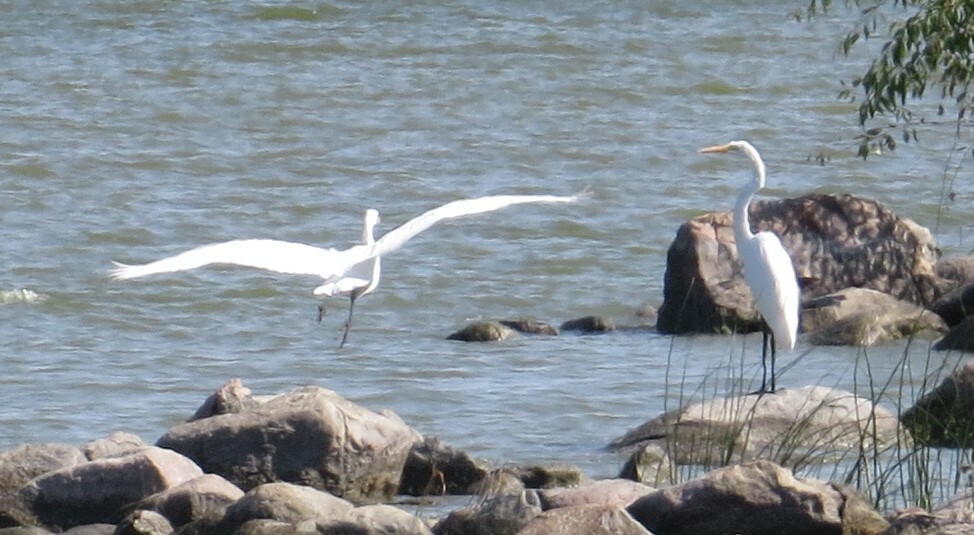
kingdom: Animalia
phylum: Chordata
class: Aves
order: Pelecaniformes
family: Ardeidae
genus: Ardea
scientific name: Ardea alba
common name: Great egret
